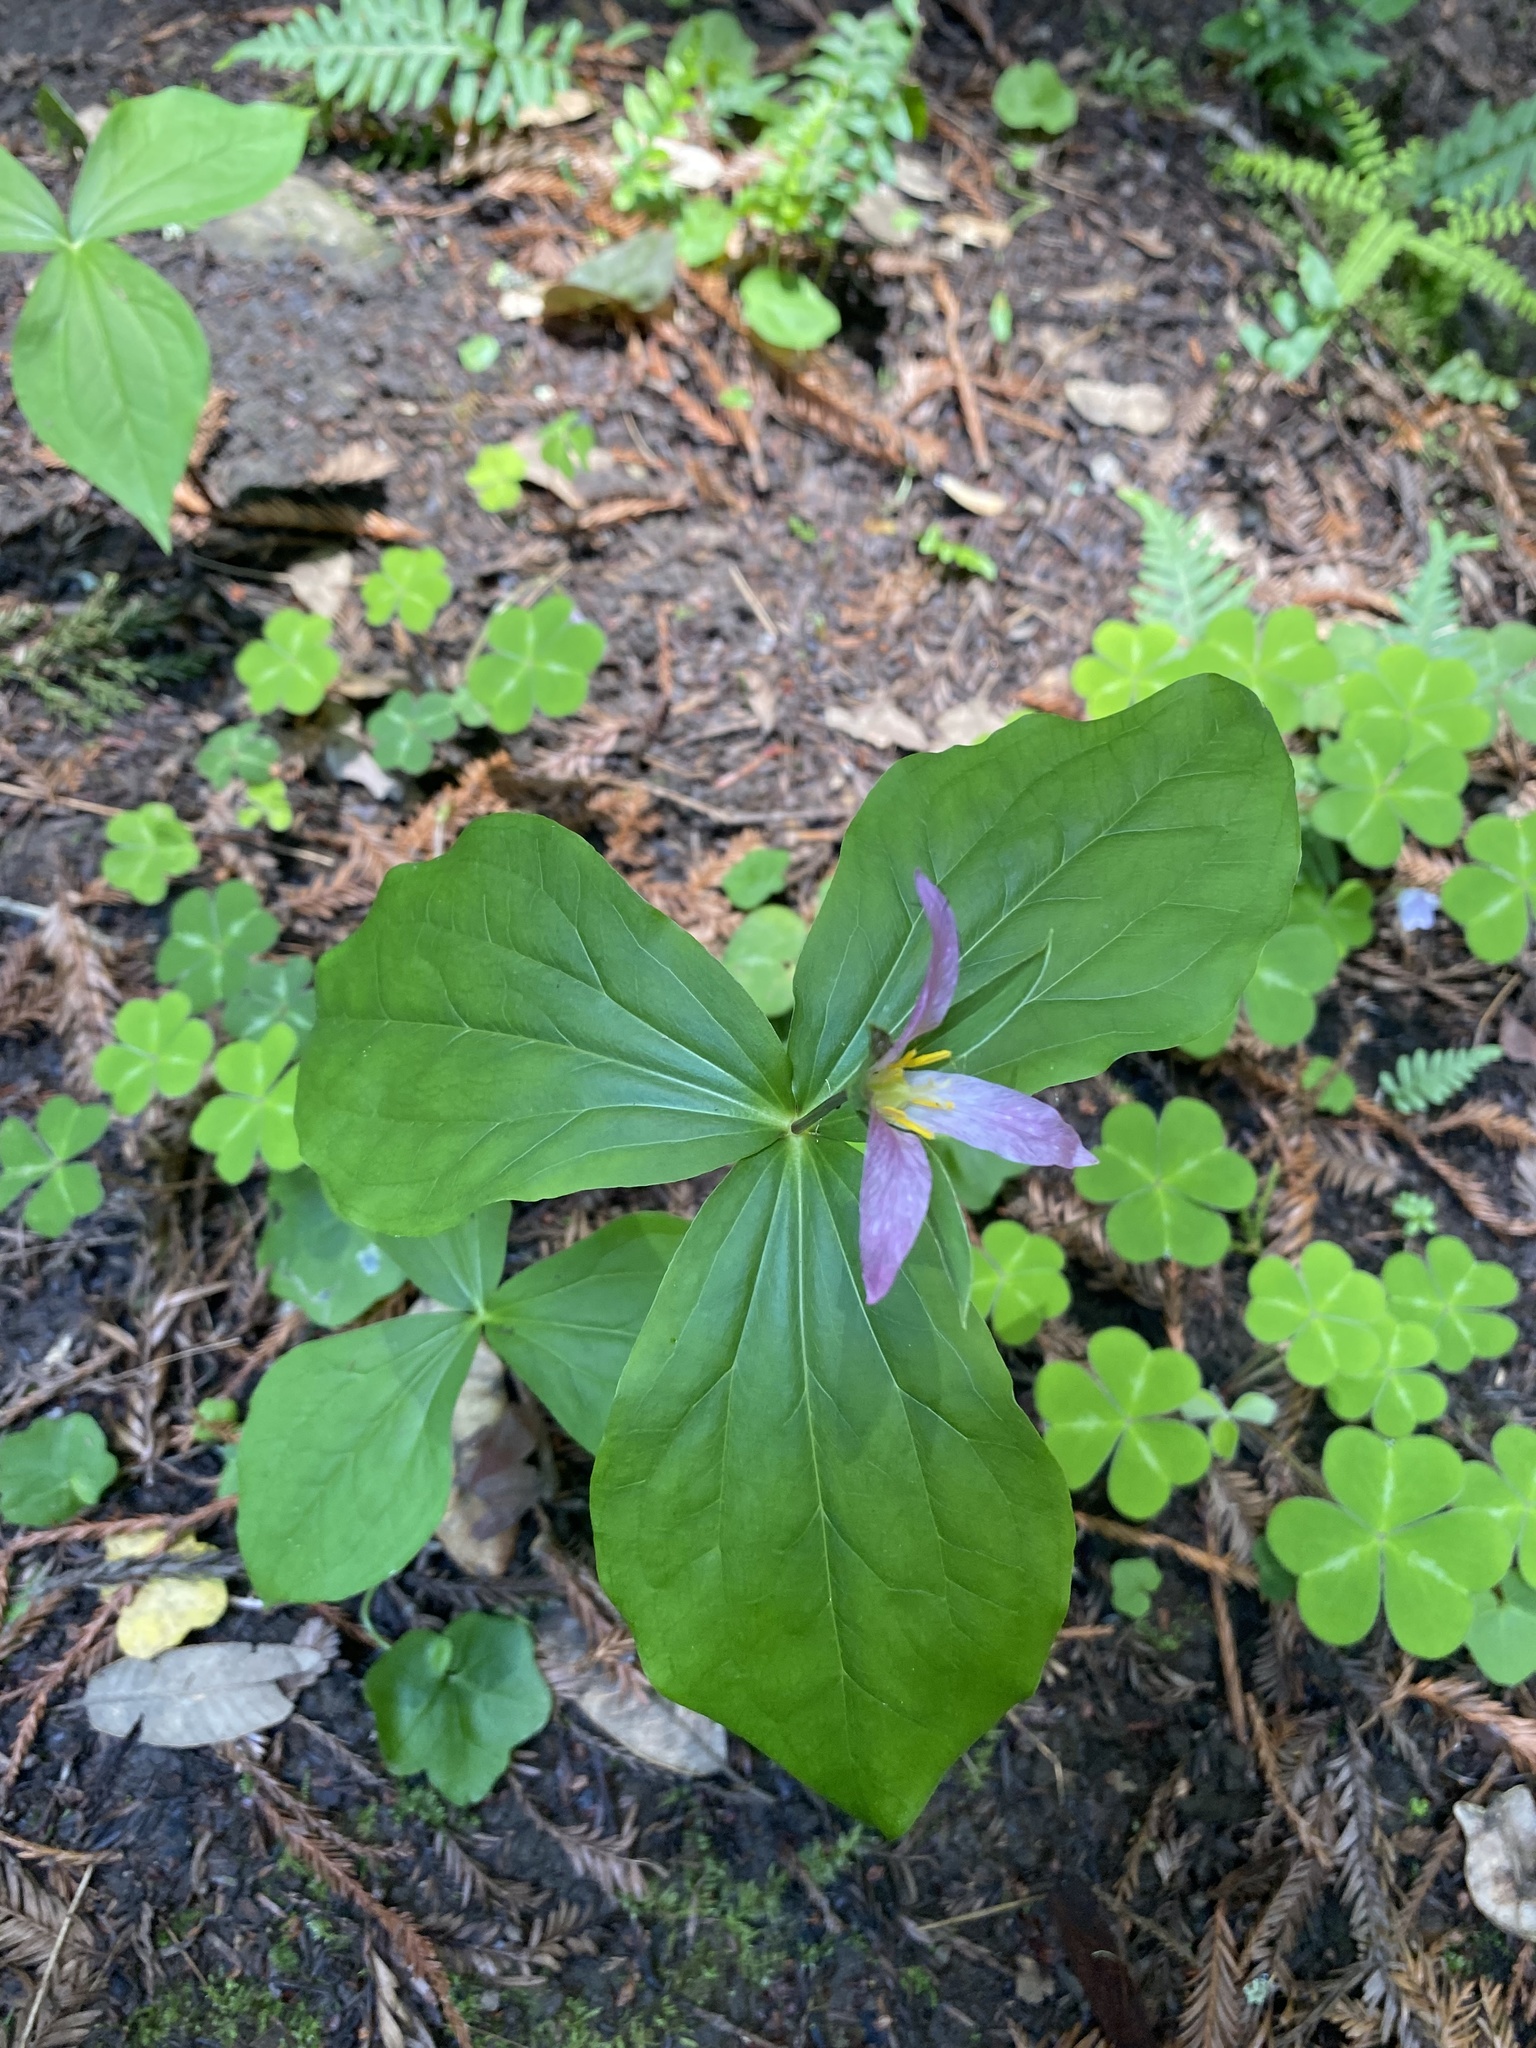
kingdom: Plantae
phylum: Tracheophyta
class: Liliopsida
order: Liliales
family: Melanthiaceae
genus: Trillium
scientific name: Trillium ovatum
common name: Pacific trillium
